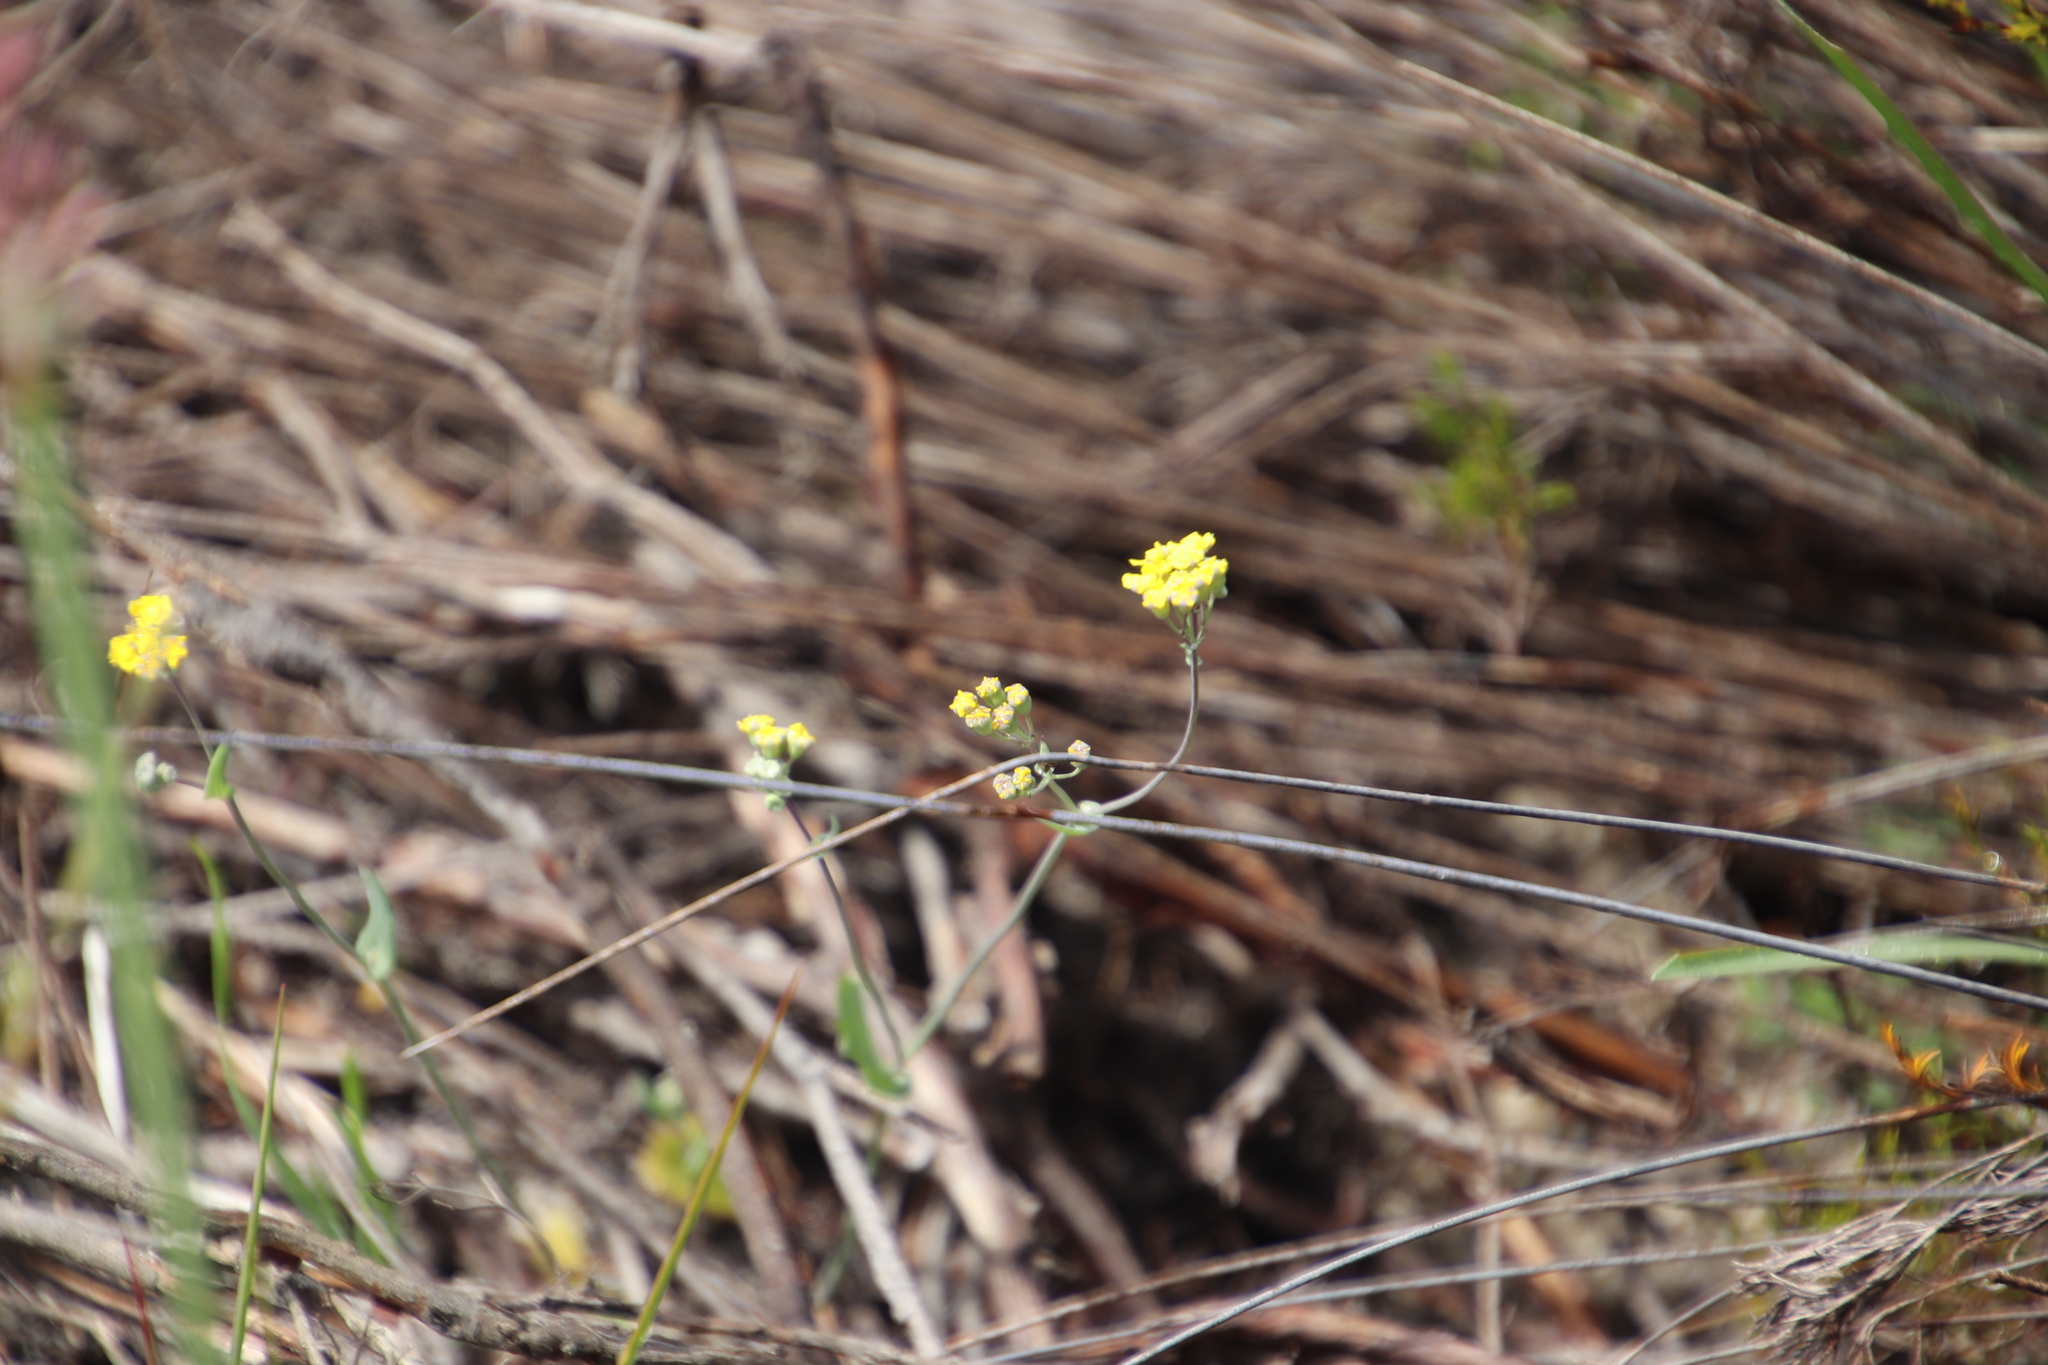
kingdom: Plantae
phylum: Tracheophyta
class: Magnoliopsida
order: Asterales
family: Asteraceae
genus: Gymnodiscus
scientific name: Gymnodiscus capillaris
